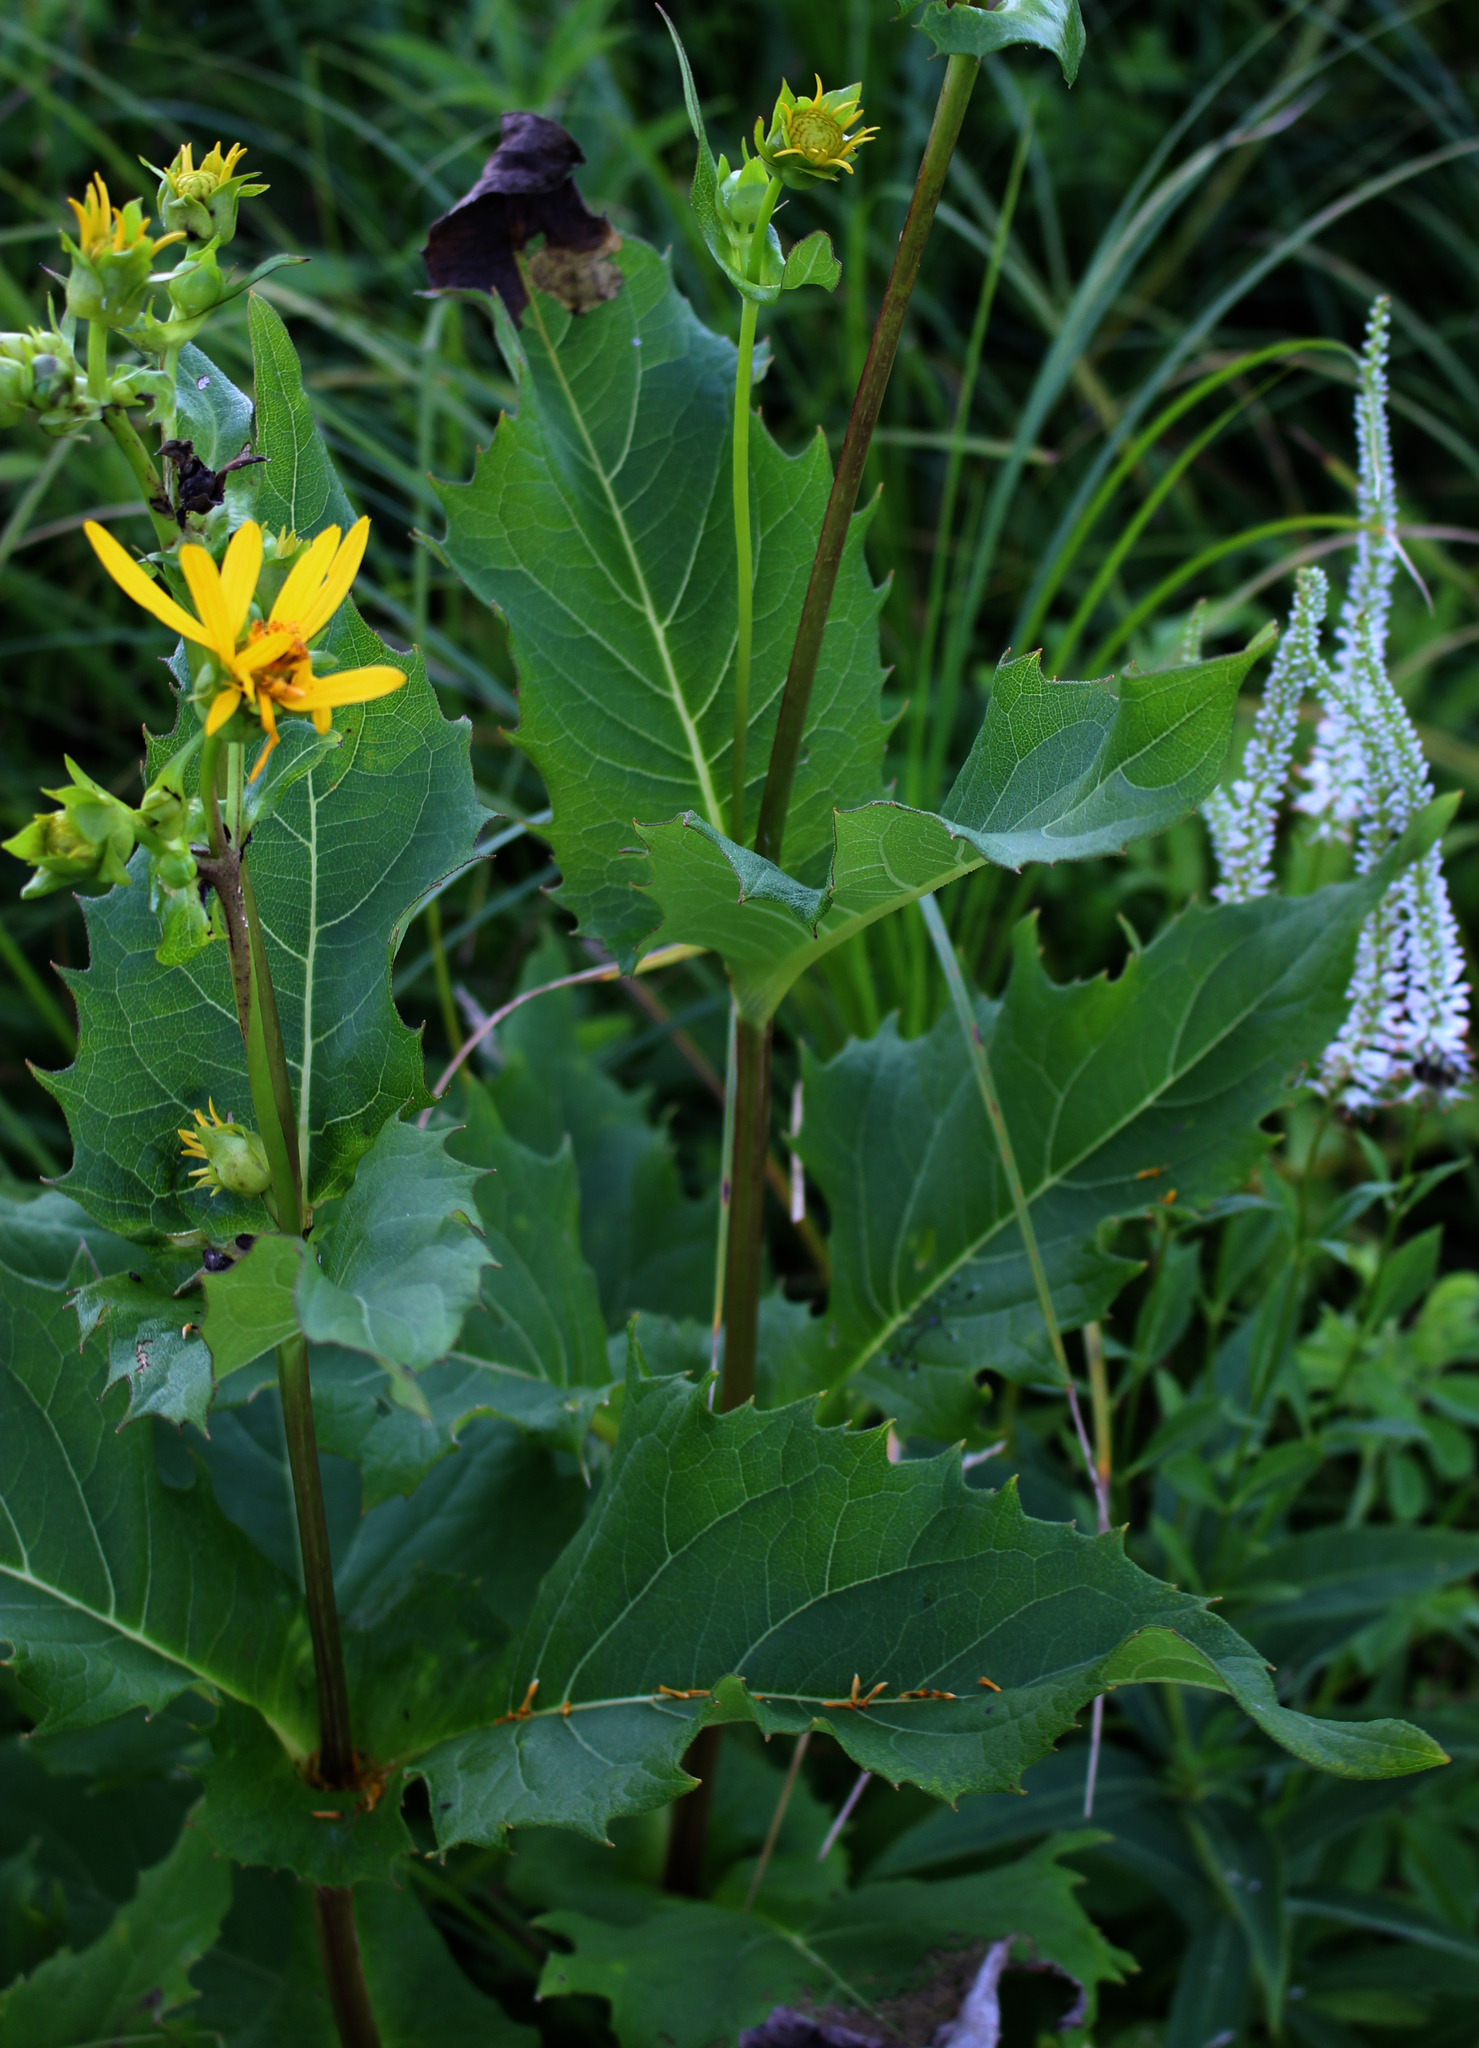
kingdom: Plantae
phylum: Tracheophyta
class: Magnoliopsida
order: Asterales
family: Asteraceae
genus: Silphium
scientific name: Silphium perfoliatum
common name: Cup-plant
